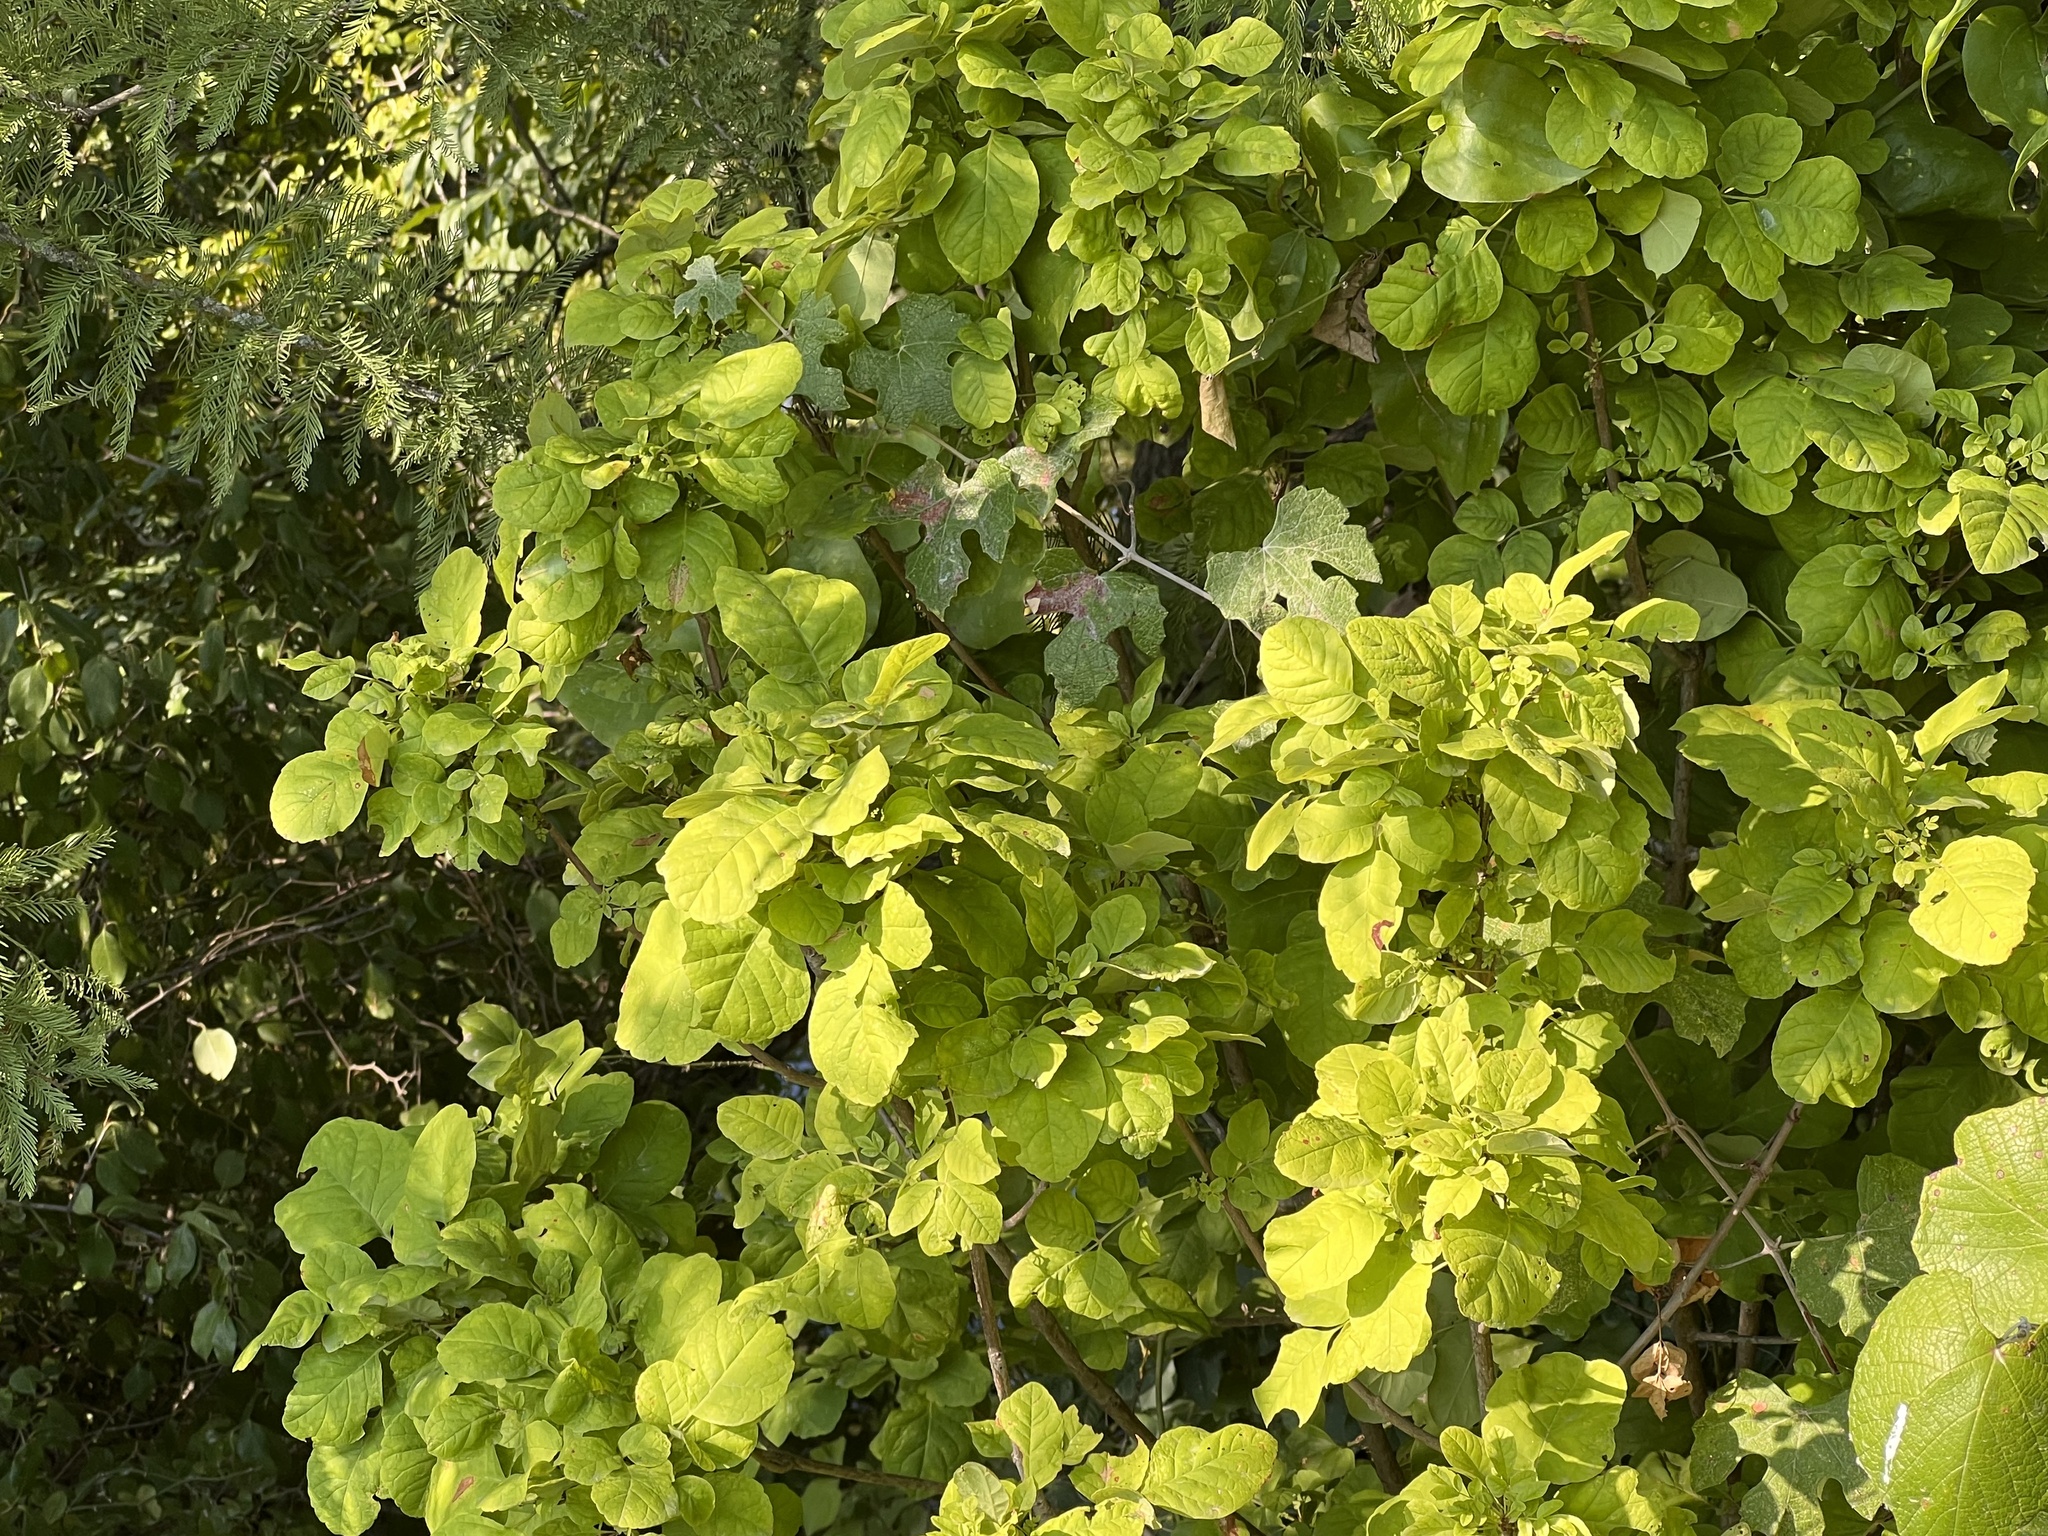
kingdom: Plantae
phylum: Tracheophyta
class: Magnoliopsida
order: Lamiales
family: Oleaceae
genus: Fraxinus
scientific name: Fraxinus albicans
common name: Texas ash
